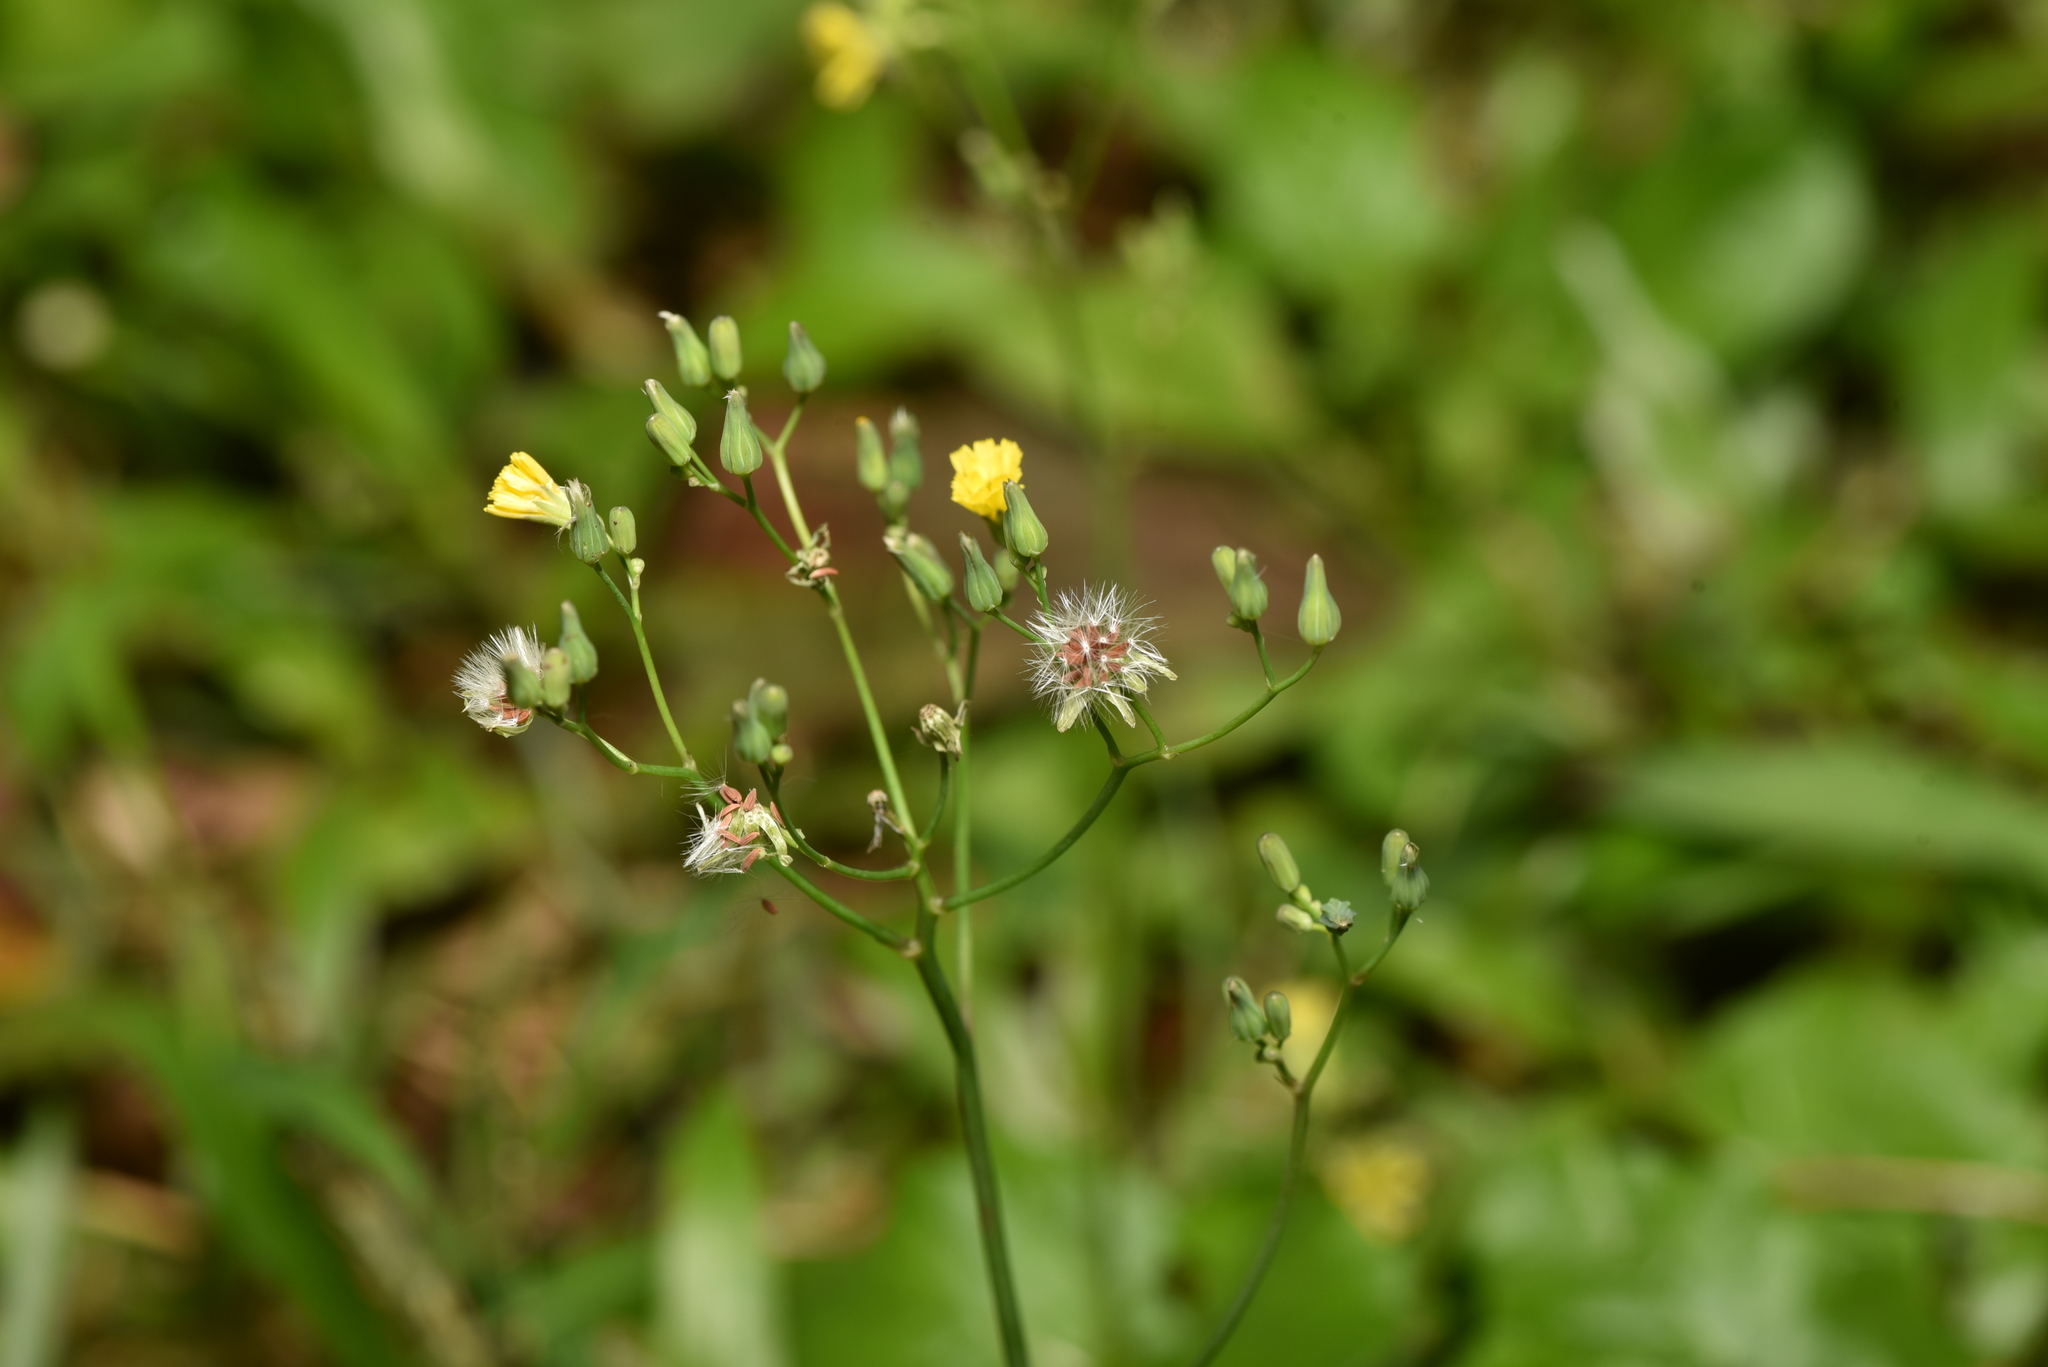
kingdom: Plantae
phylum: Tracheophyta
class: Magnoliopsida
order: Asterales
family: Asteraceae
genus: Youngia
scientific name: Youngia japonica
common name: Oriental false hawksbeard
